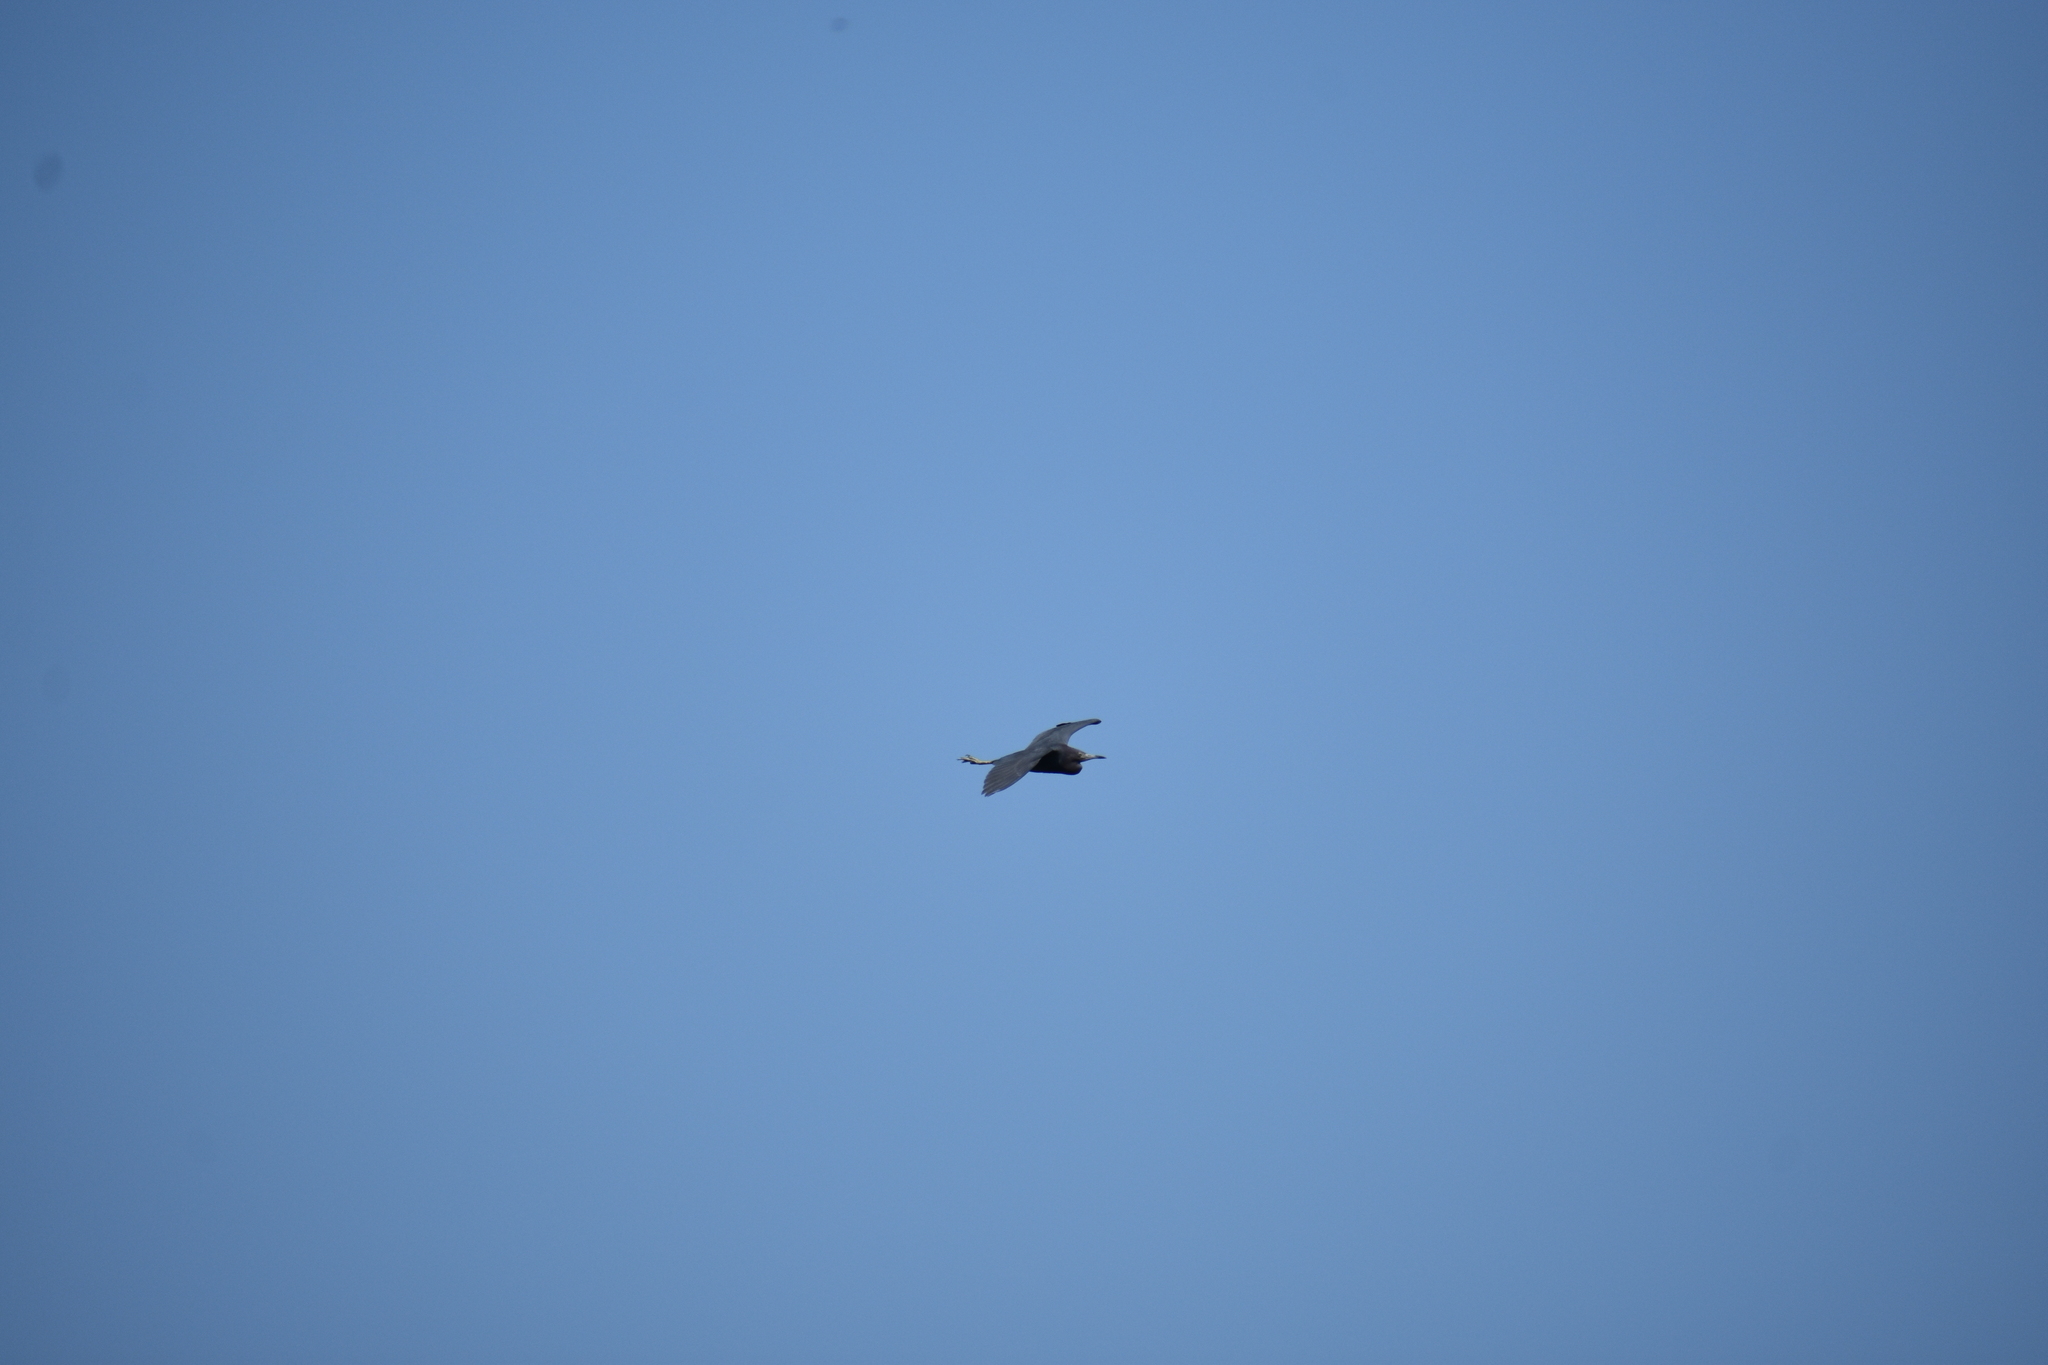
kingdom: Animalia
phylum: Chordata
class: Aves
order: Pelecaniformes
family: Ardeidae
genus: Egretta
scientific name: Egretta caerulea
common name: Little blue heron
